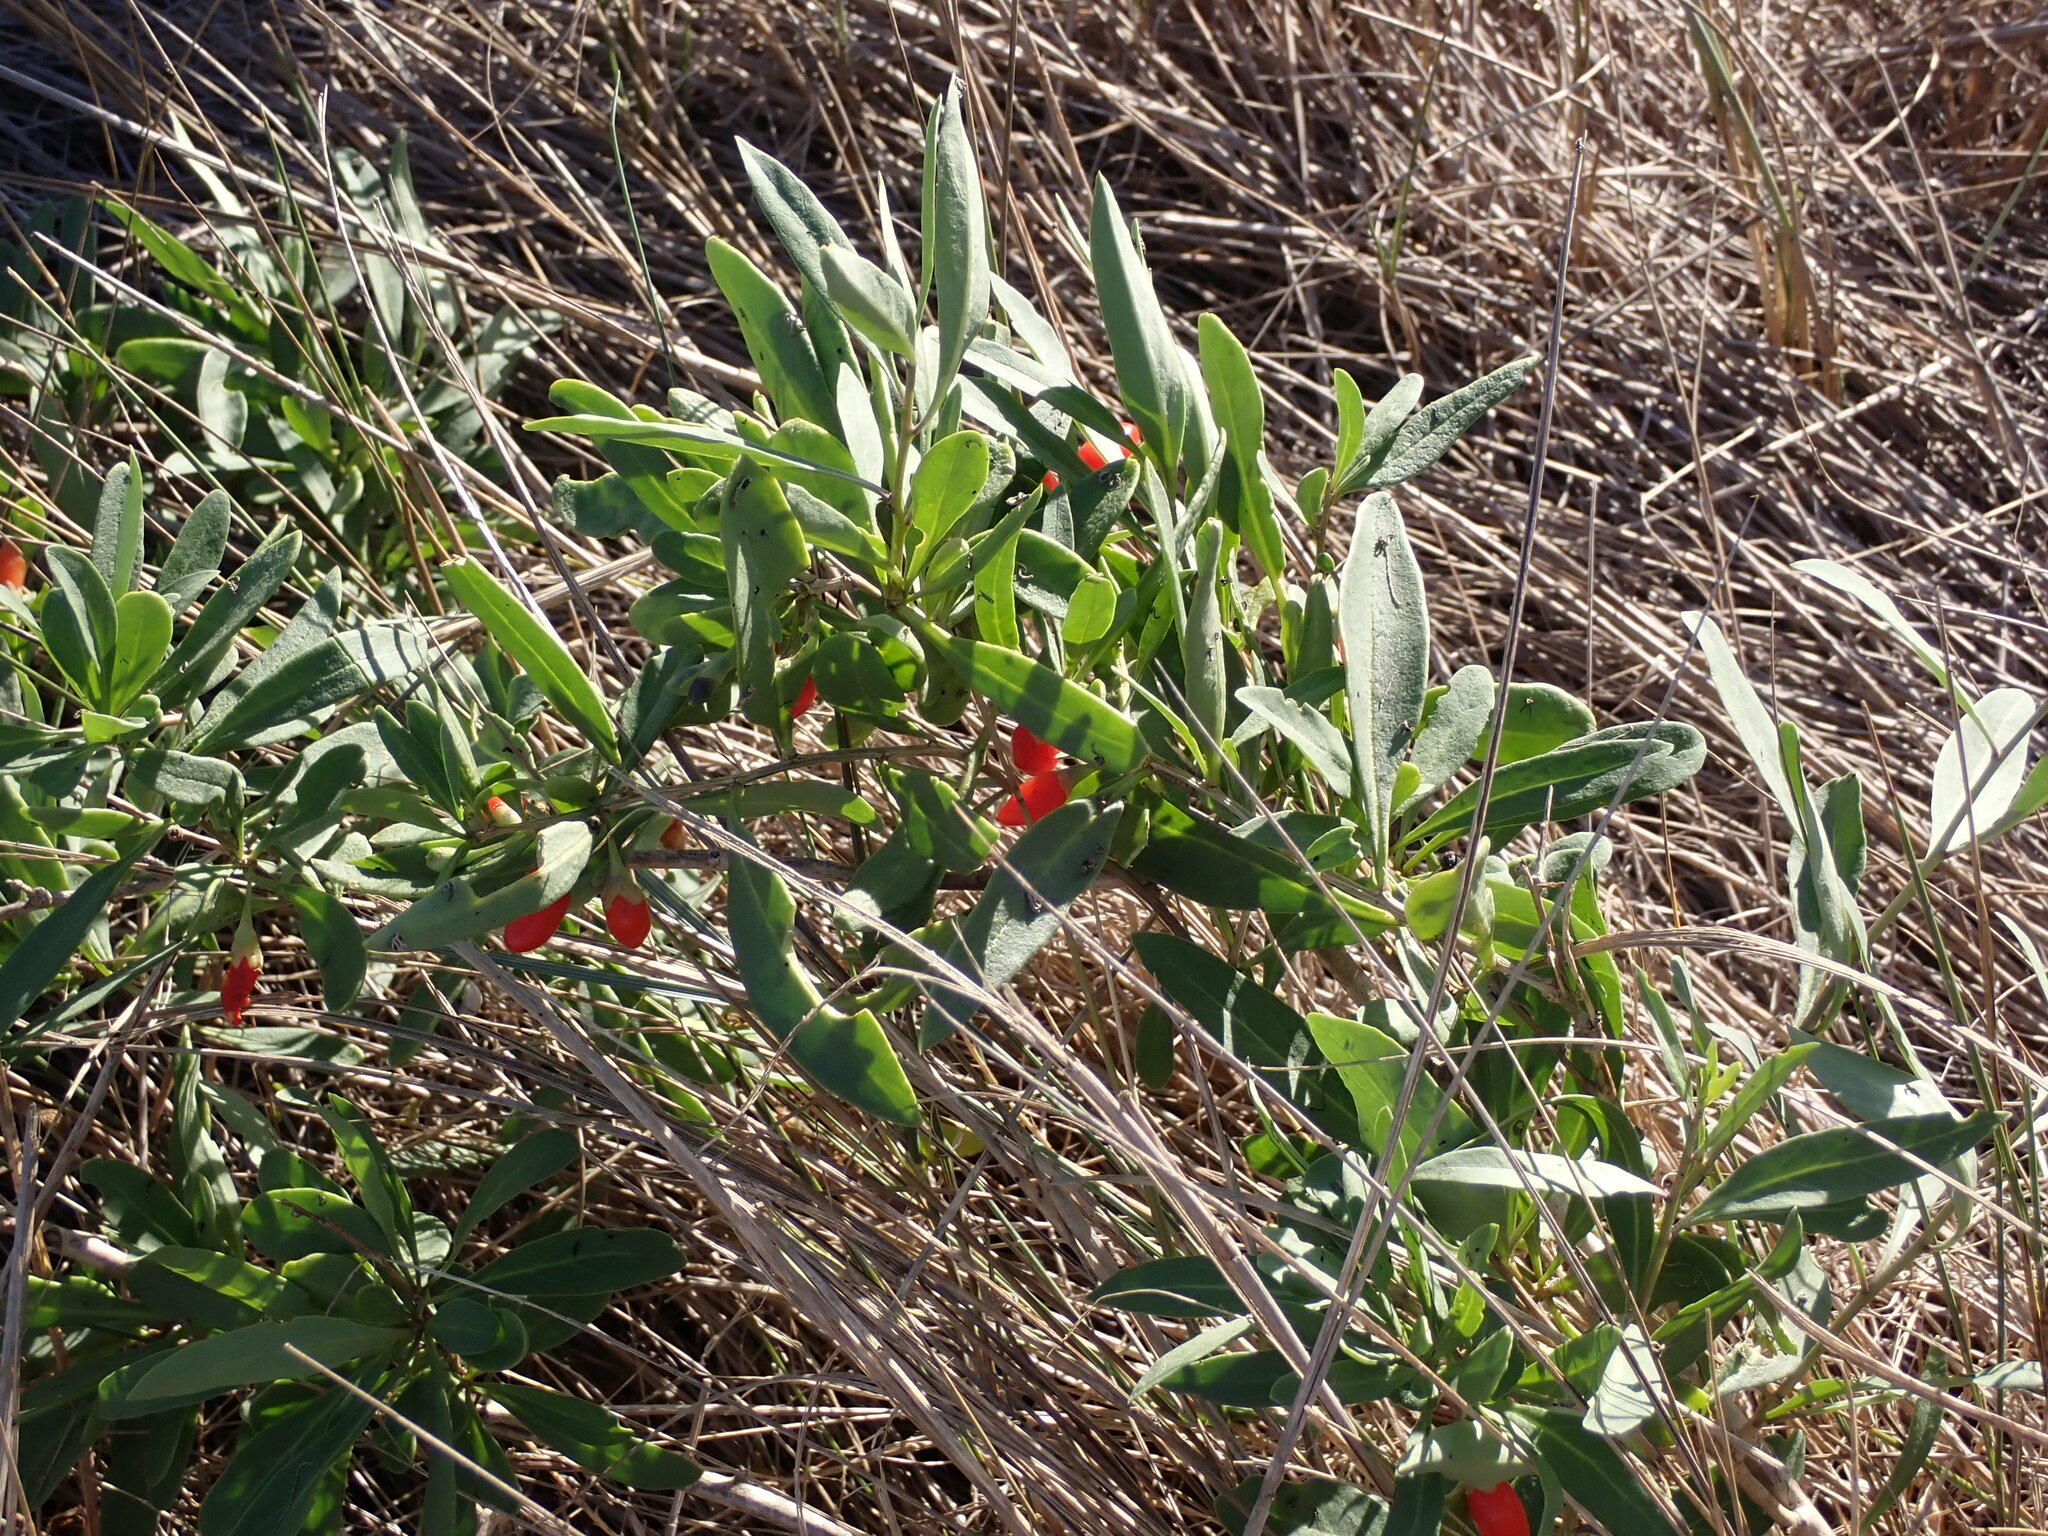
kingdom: Plantae
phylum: Tracheophyta
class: Magnoliopsida
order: Solanales
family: Solanaceae
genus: Lycium
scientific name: Lycium barbarum
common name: Duke of argyll's teaplant
